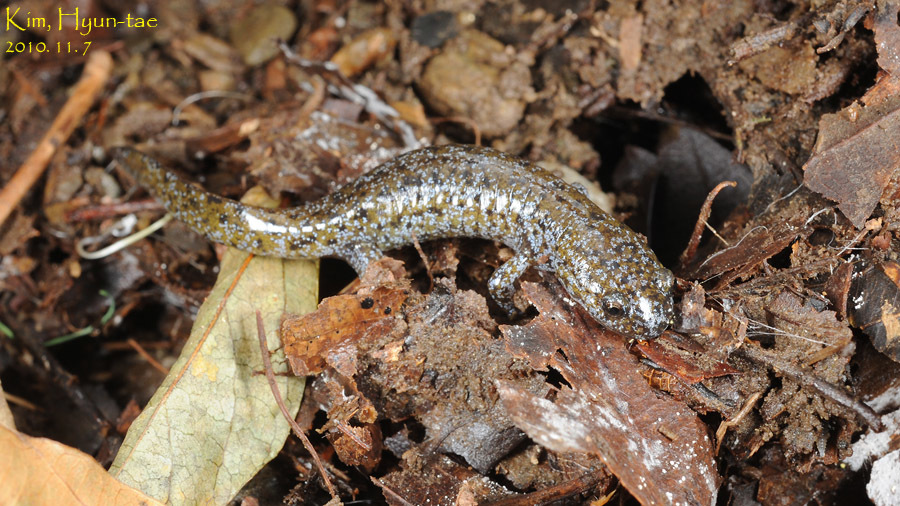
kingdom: Animalia
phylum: Chordata
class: Amphibia
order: Caudata
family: Hynobiidae
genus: Hynobius
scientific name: Hynobius leechii
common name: Gensan salamander
